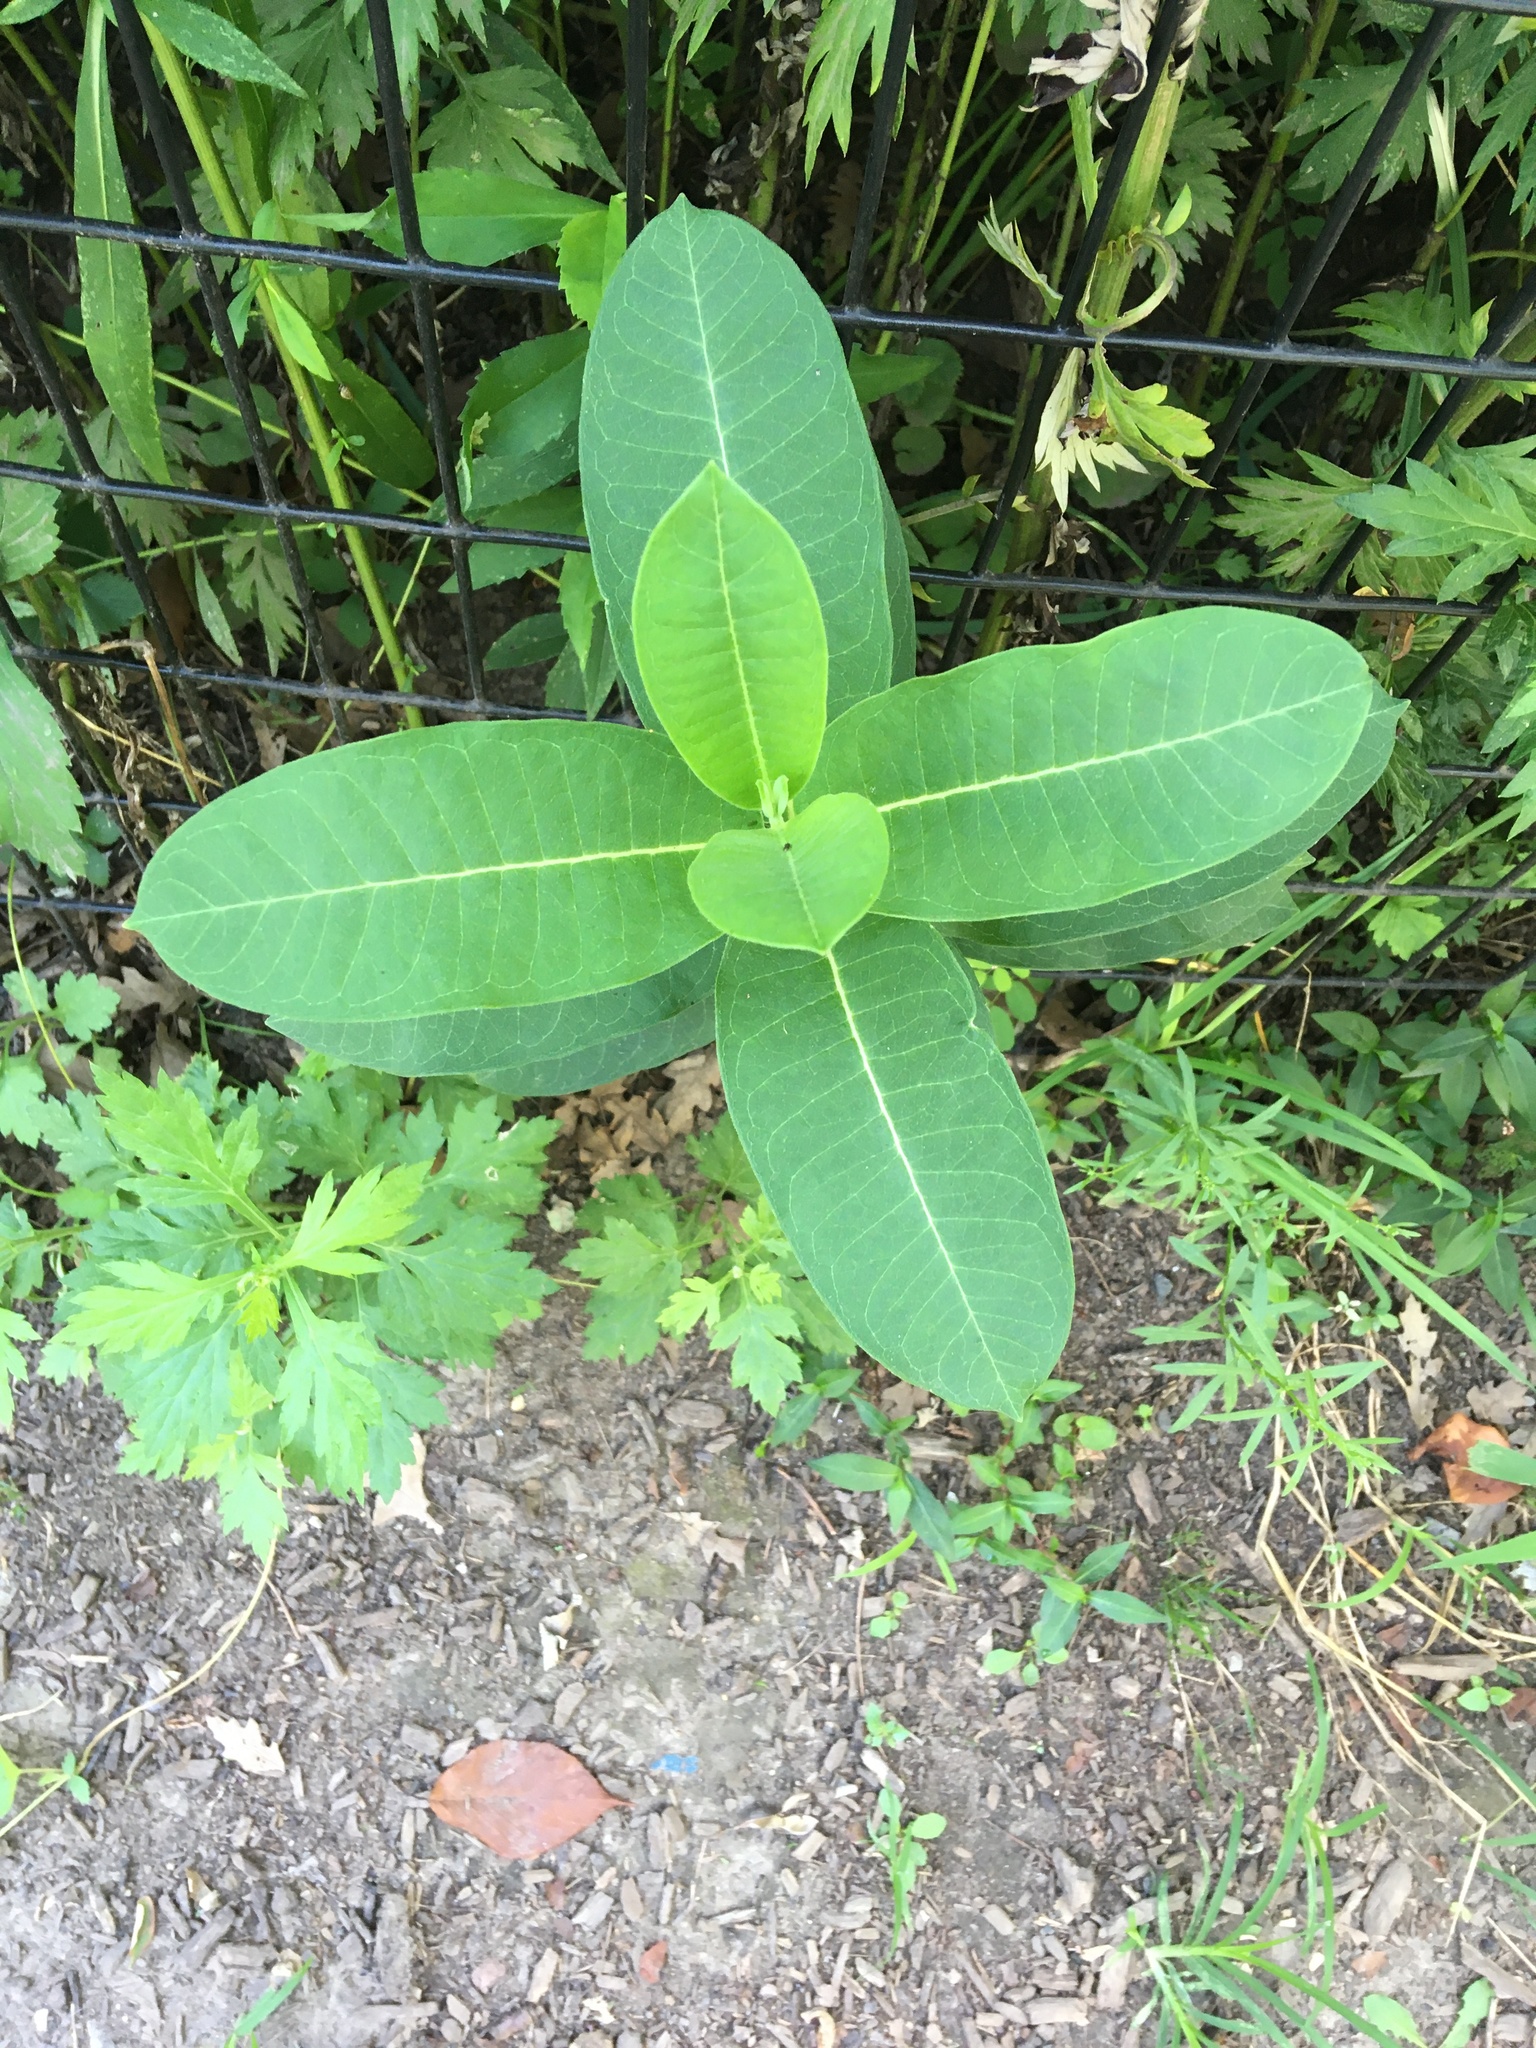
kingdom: Plantae
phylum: Tracheophyta
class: Magnoliopsida
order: Gentianales
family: Apocynaceae
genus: Asclepias
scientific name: Asclepias syriaca
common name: Common milkweed
